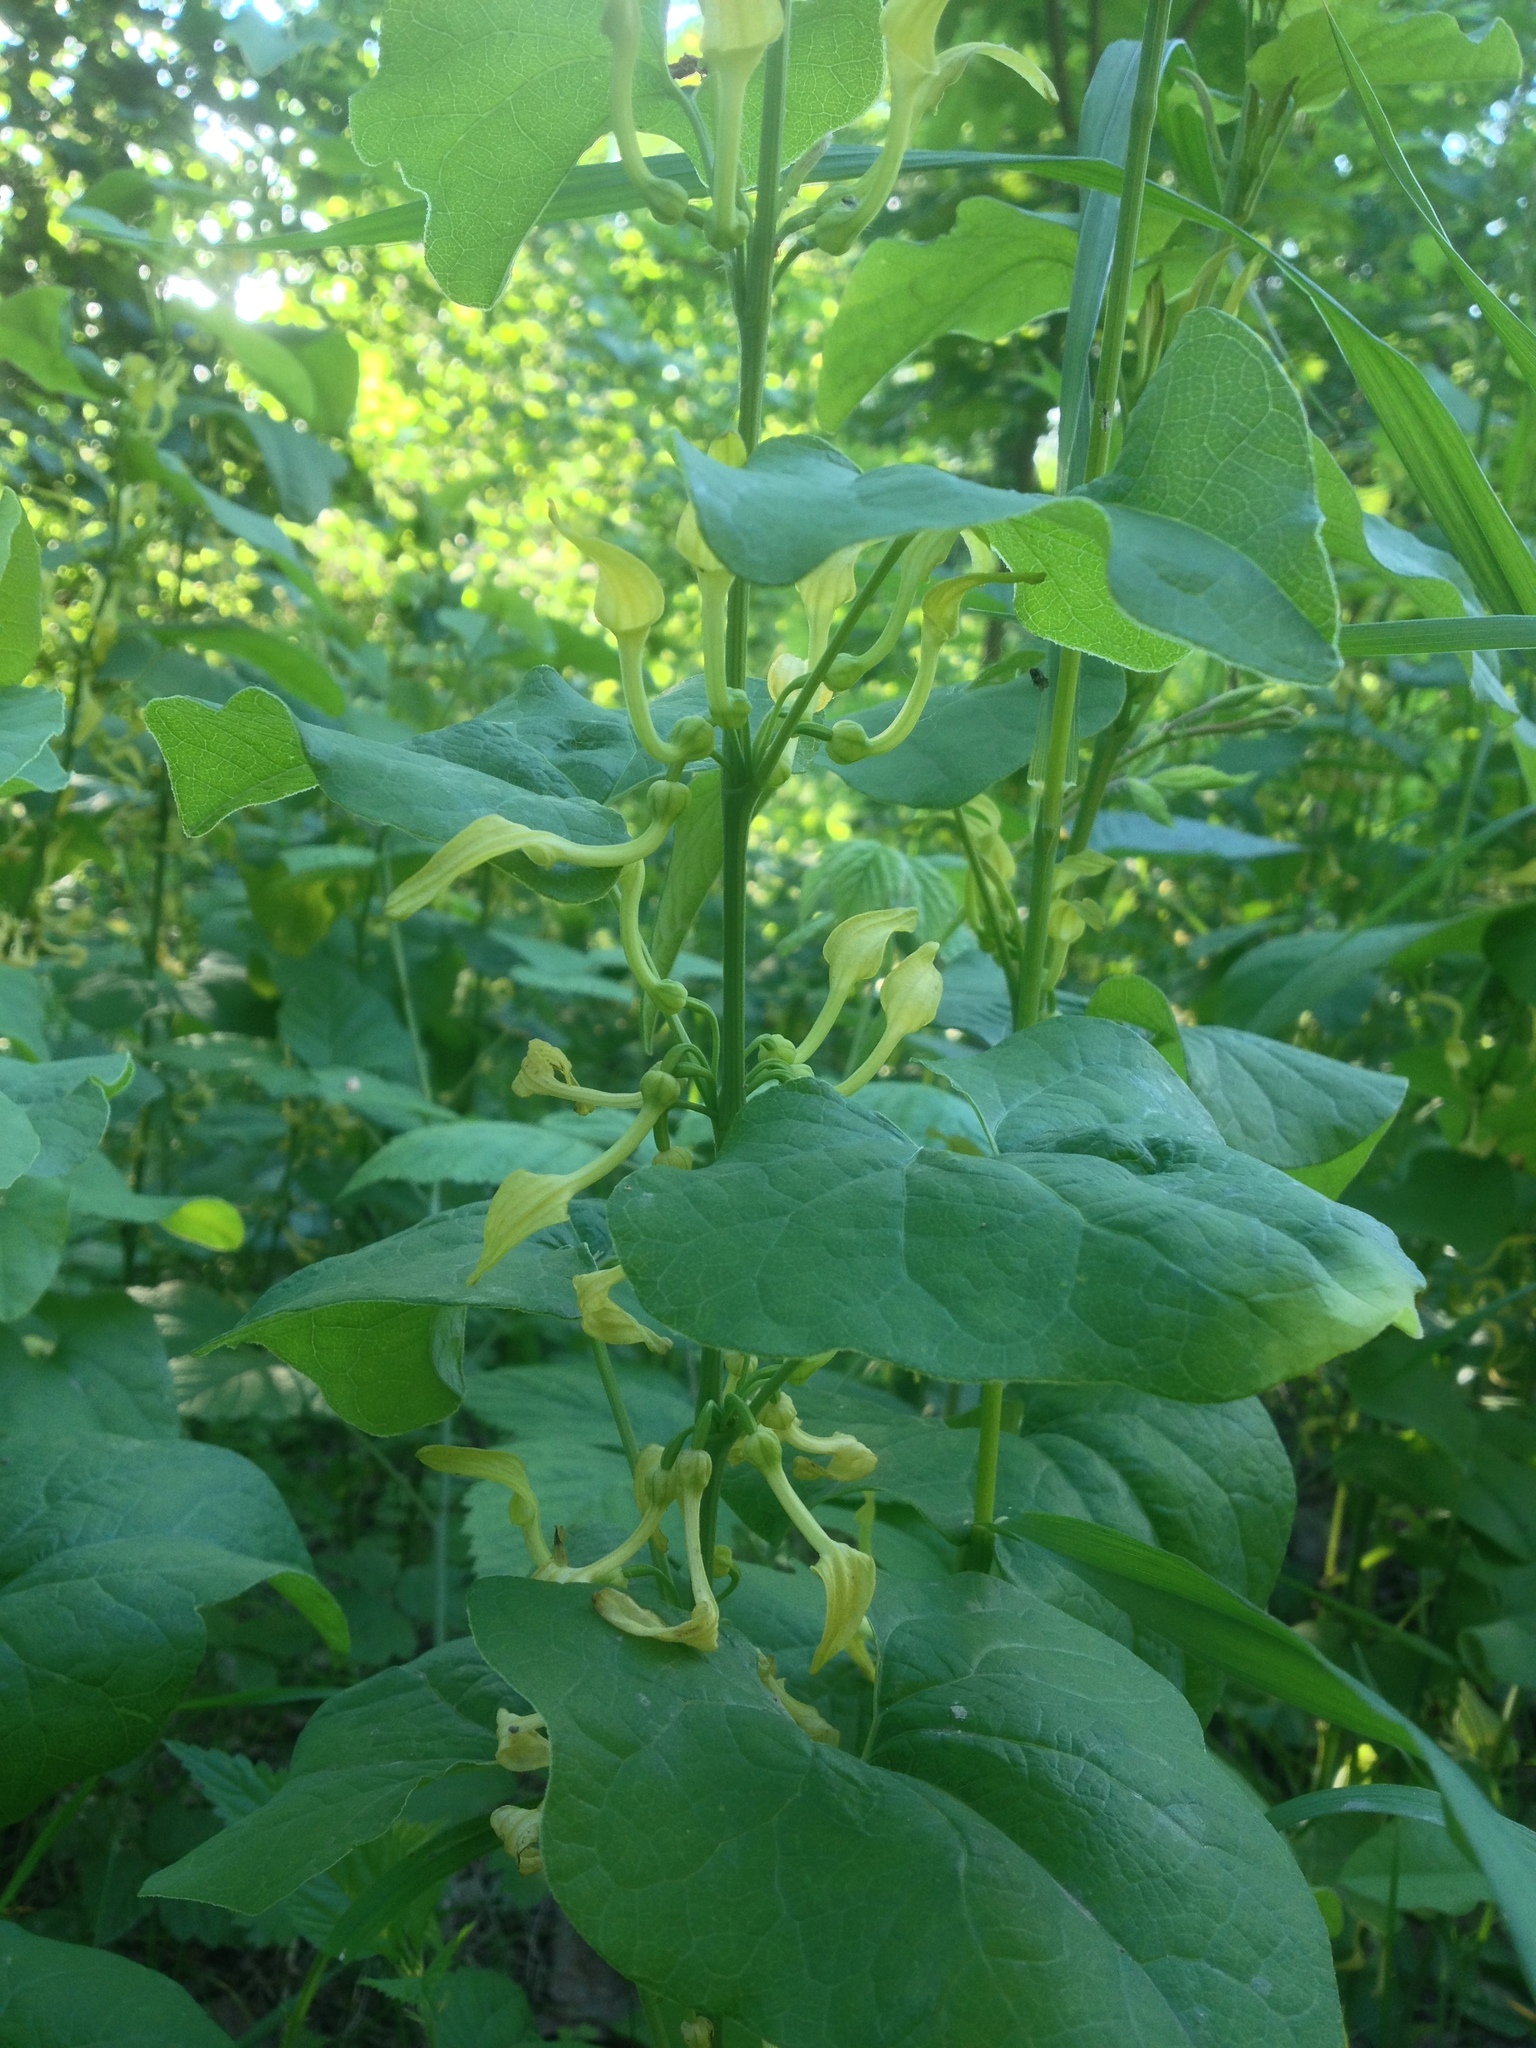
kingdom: Plantae
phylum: Tracheophyta
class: Magnoliopsida
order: Piperales
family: Aristolochiaceae
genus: Aristolochia
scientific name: Aristolochia clematitis
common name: Birthwort
